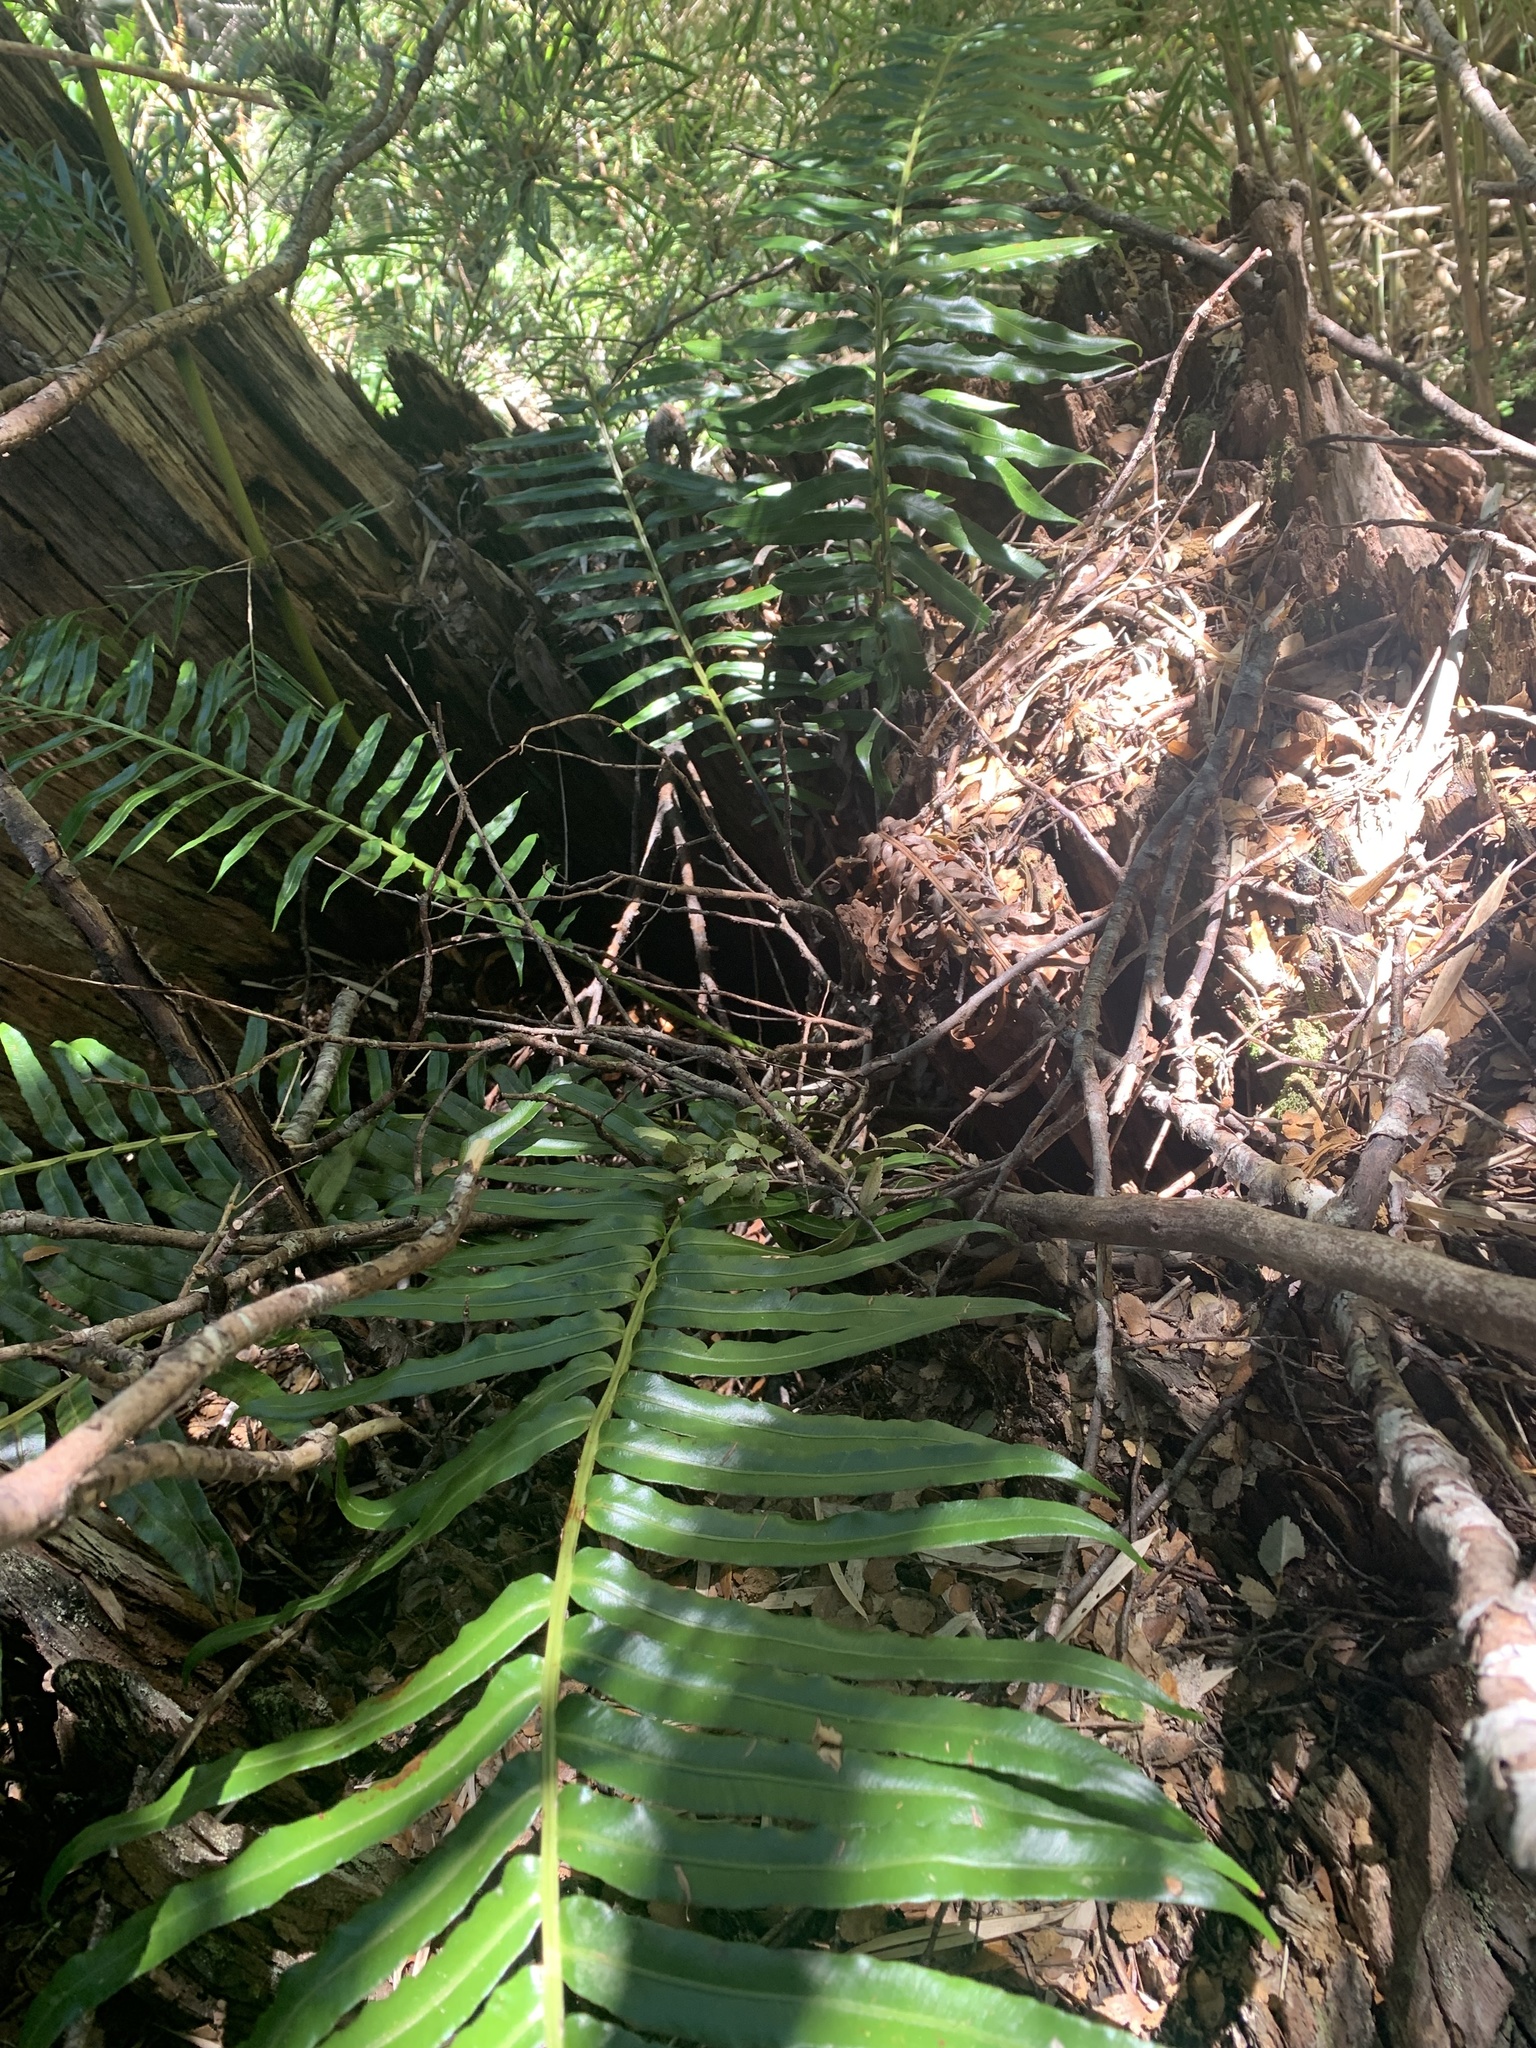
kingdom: Plantae
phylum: Tracheophyta
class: Polypodiopsida
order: Polypodiales
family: Blechnaceae
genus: Lomariocycas
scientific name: Lomariocycas magellanica
